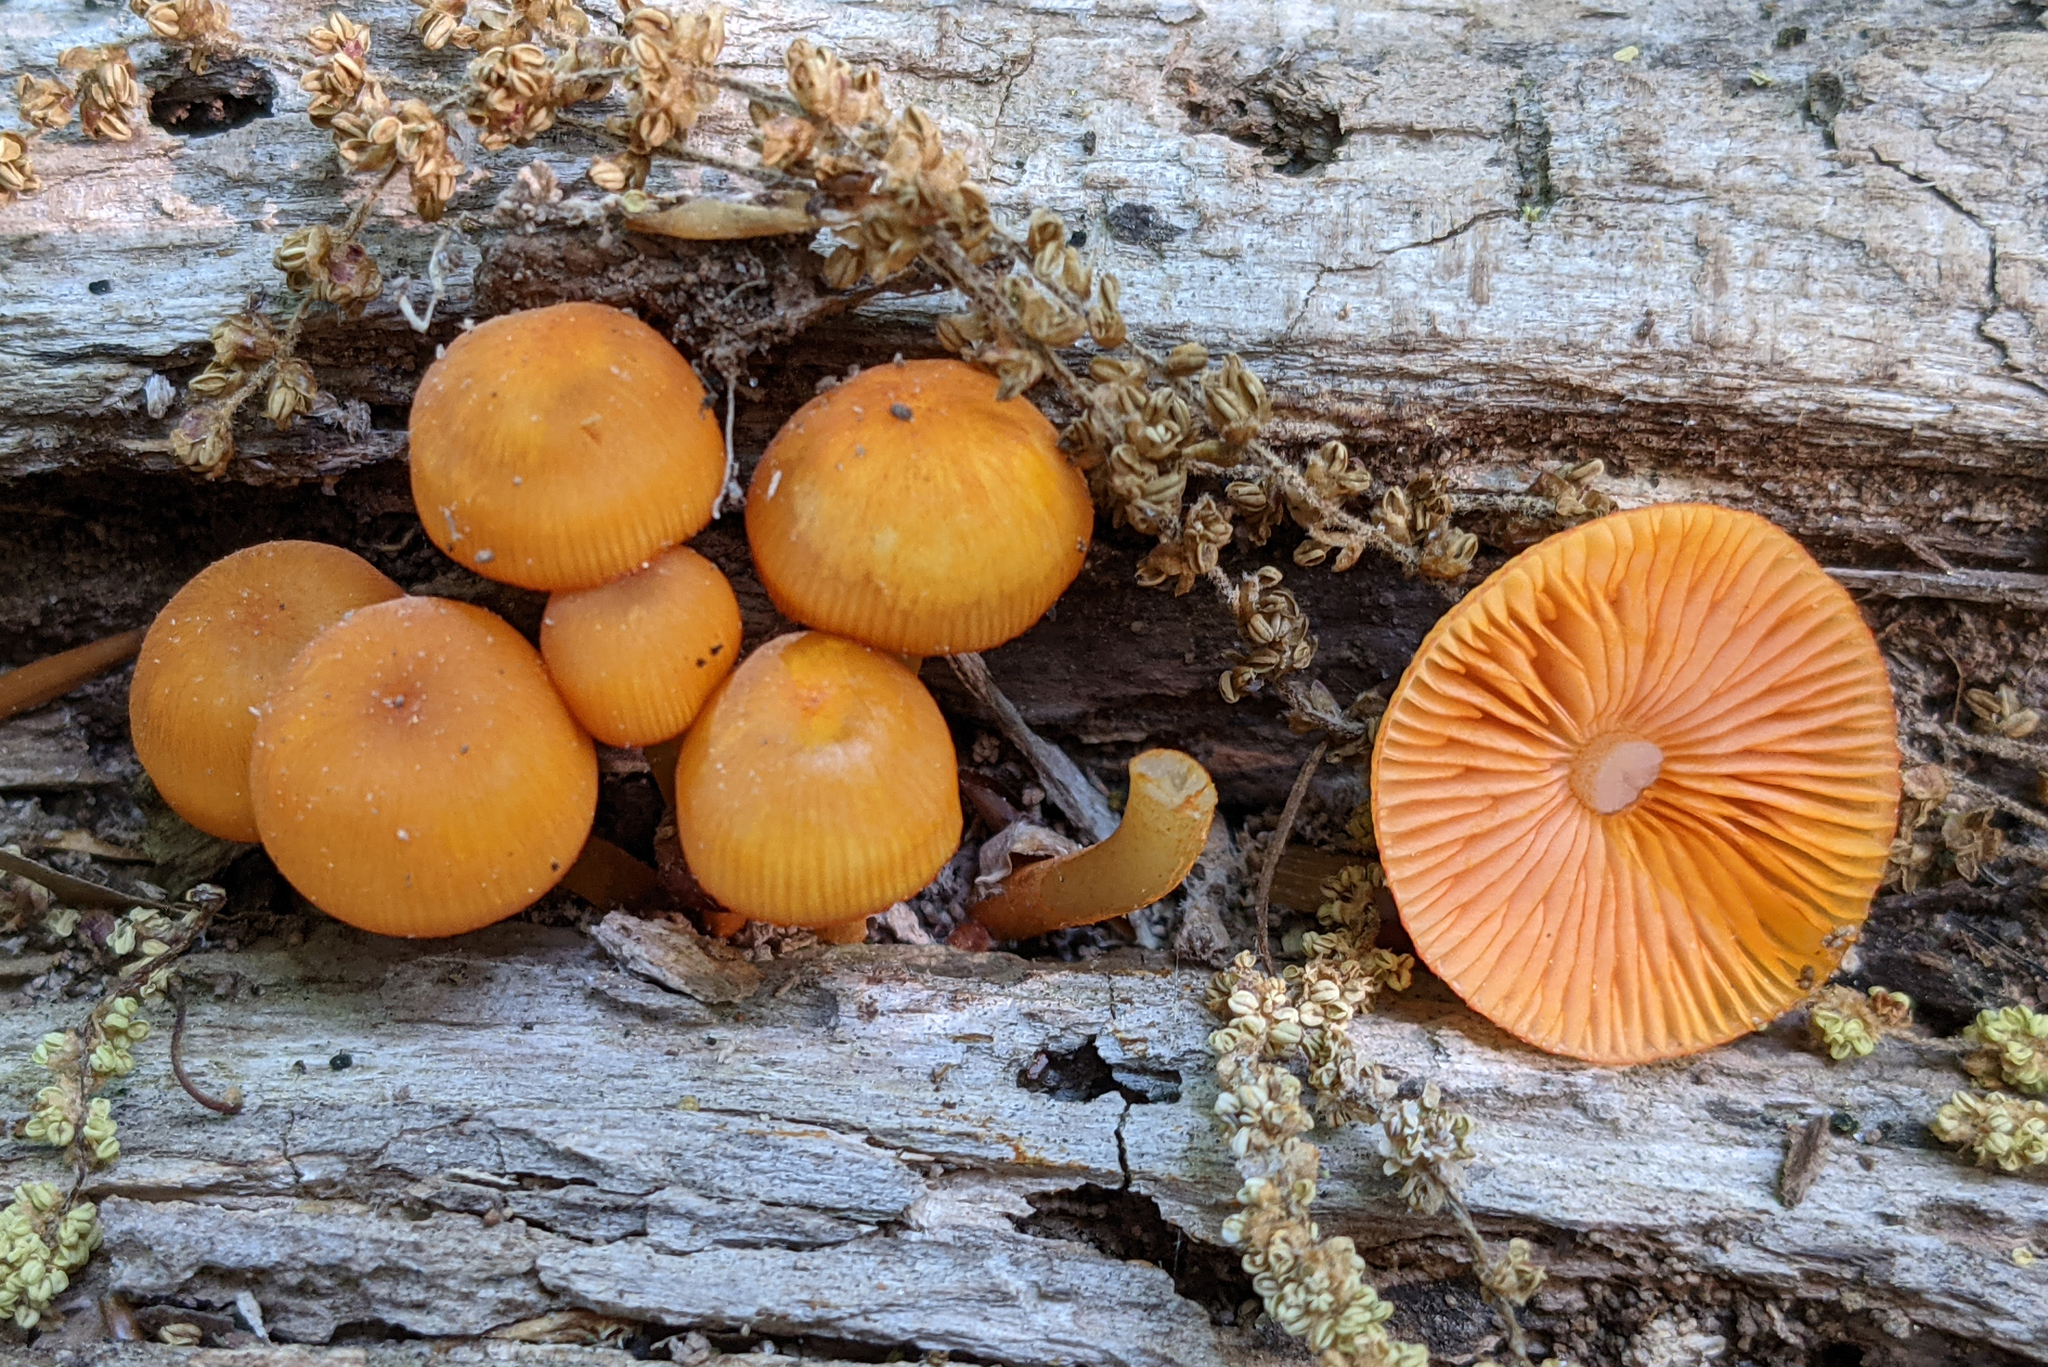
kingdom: Fungi
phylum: Basidiomycota
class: Agaricomycetes
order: Agaricales
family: Mycenaceae
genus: Mycena
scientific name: Mycena leaiana
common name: Orange mycena
